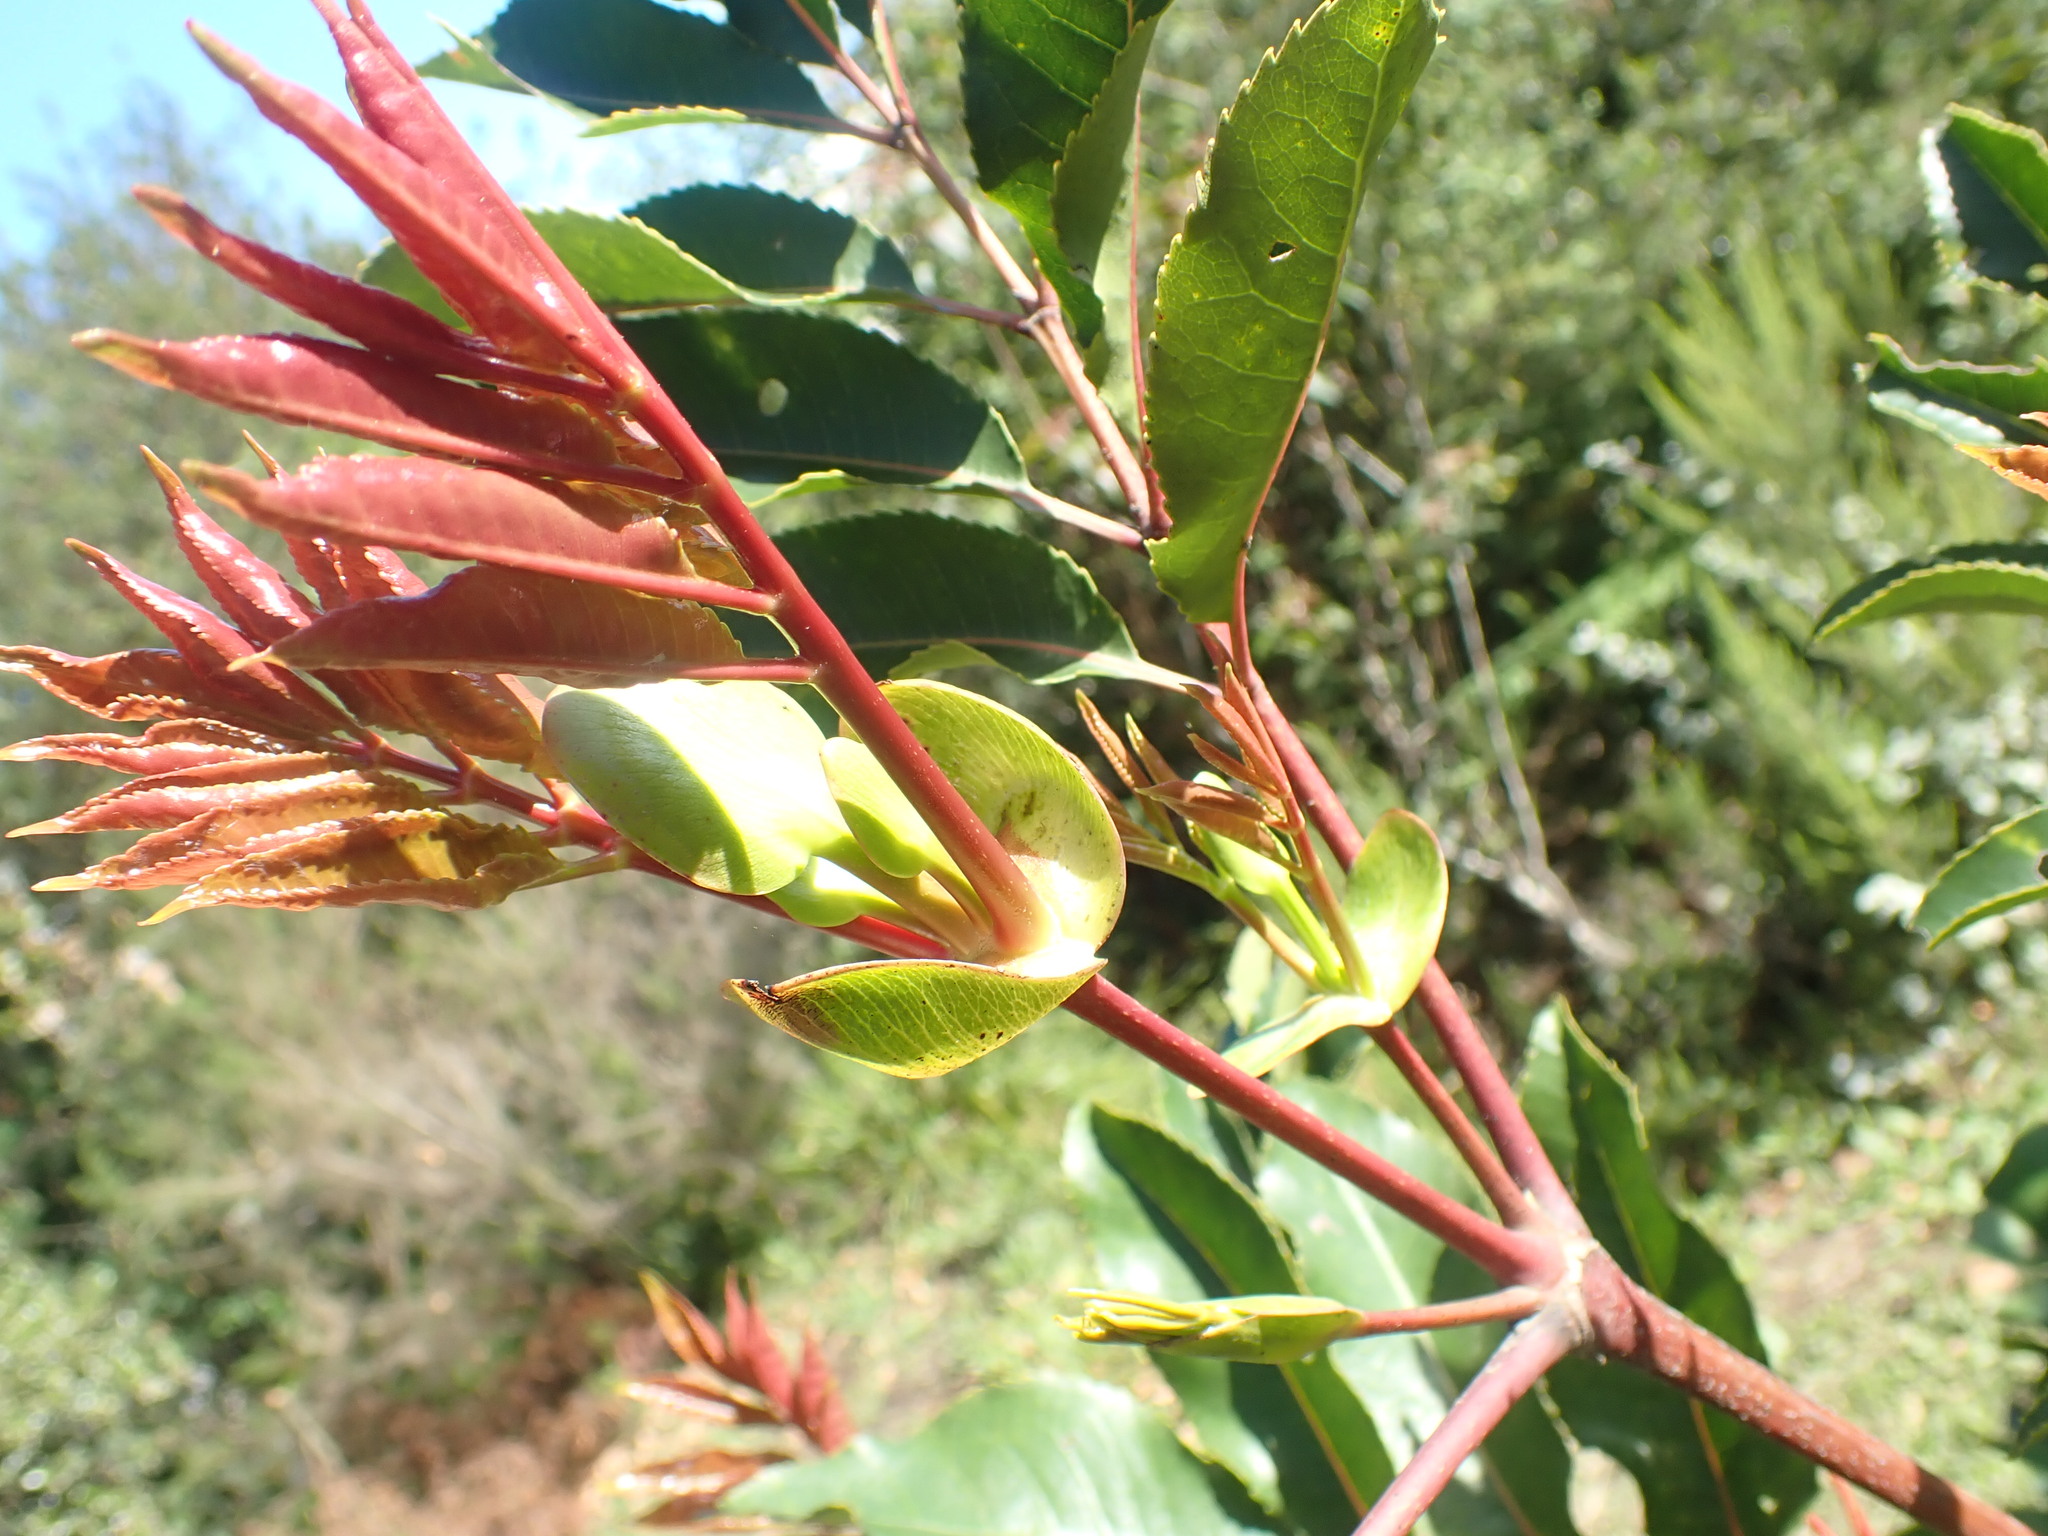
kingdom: Plantae
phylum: Tracheophyta
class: Magnoliopsida
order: Oxalidales
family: Cunoniaceae
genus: Cunonia
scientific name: Cunonia capensis
